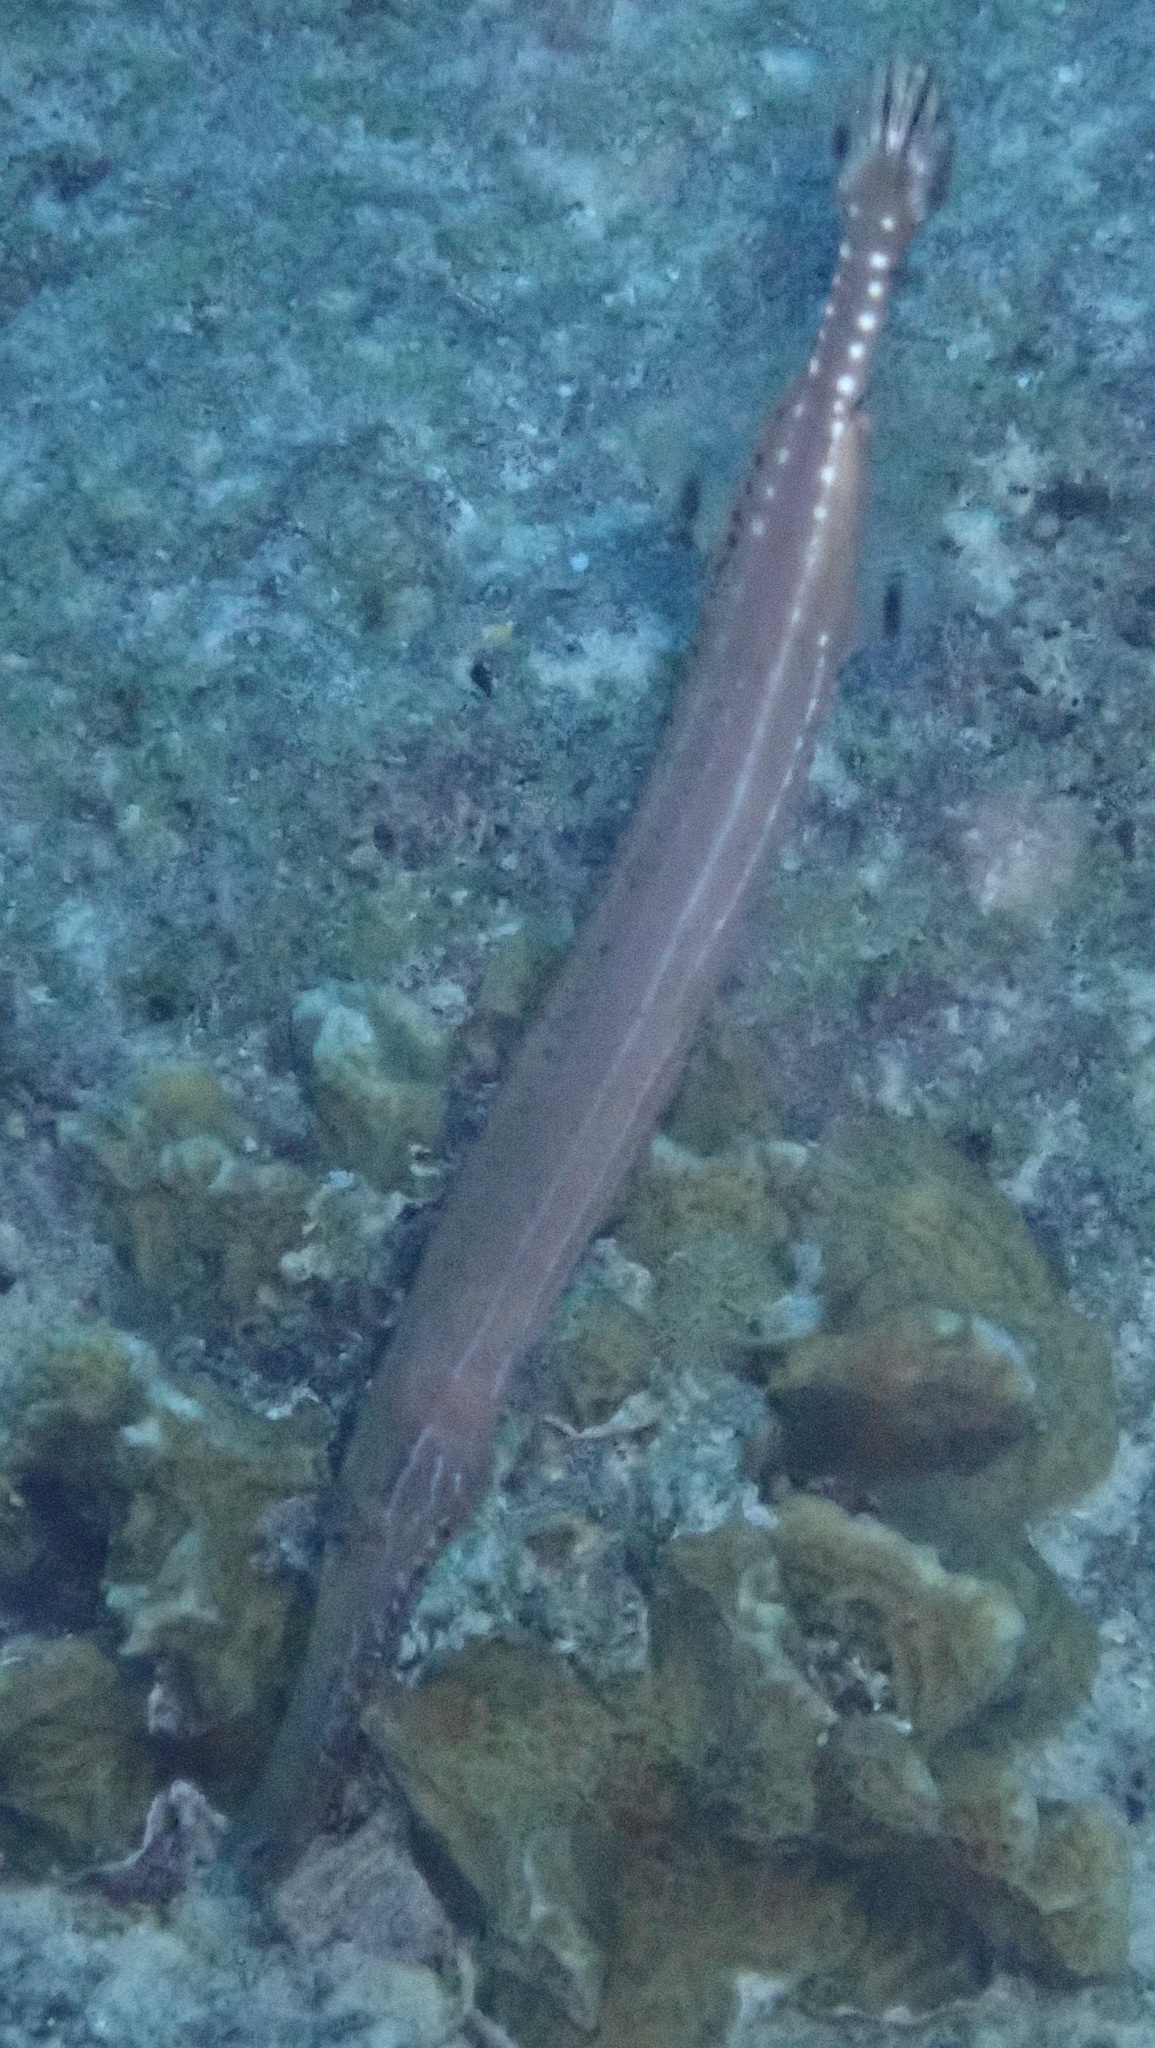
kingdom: Animalia
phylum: Chordata
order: Syngnathiformes
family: Aulostomidae
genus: Aulostomus
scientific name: Aulostomus maculatus
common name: West atlantic trumpetfish
